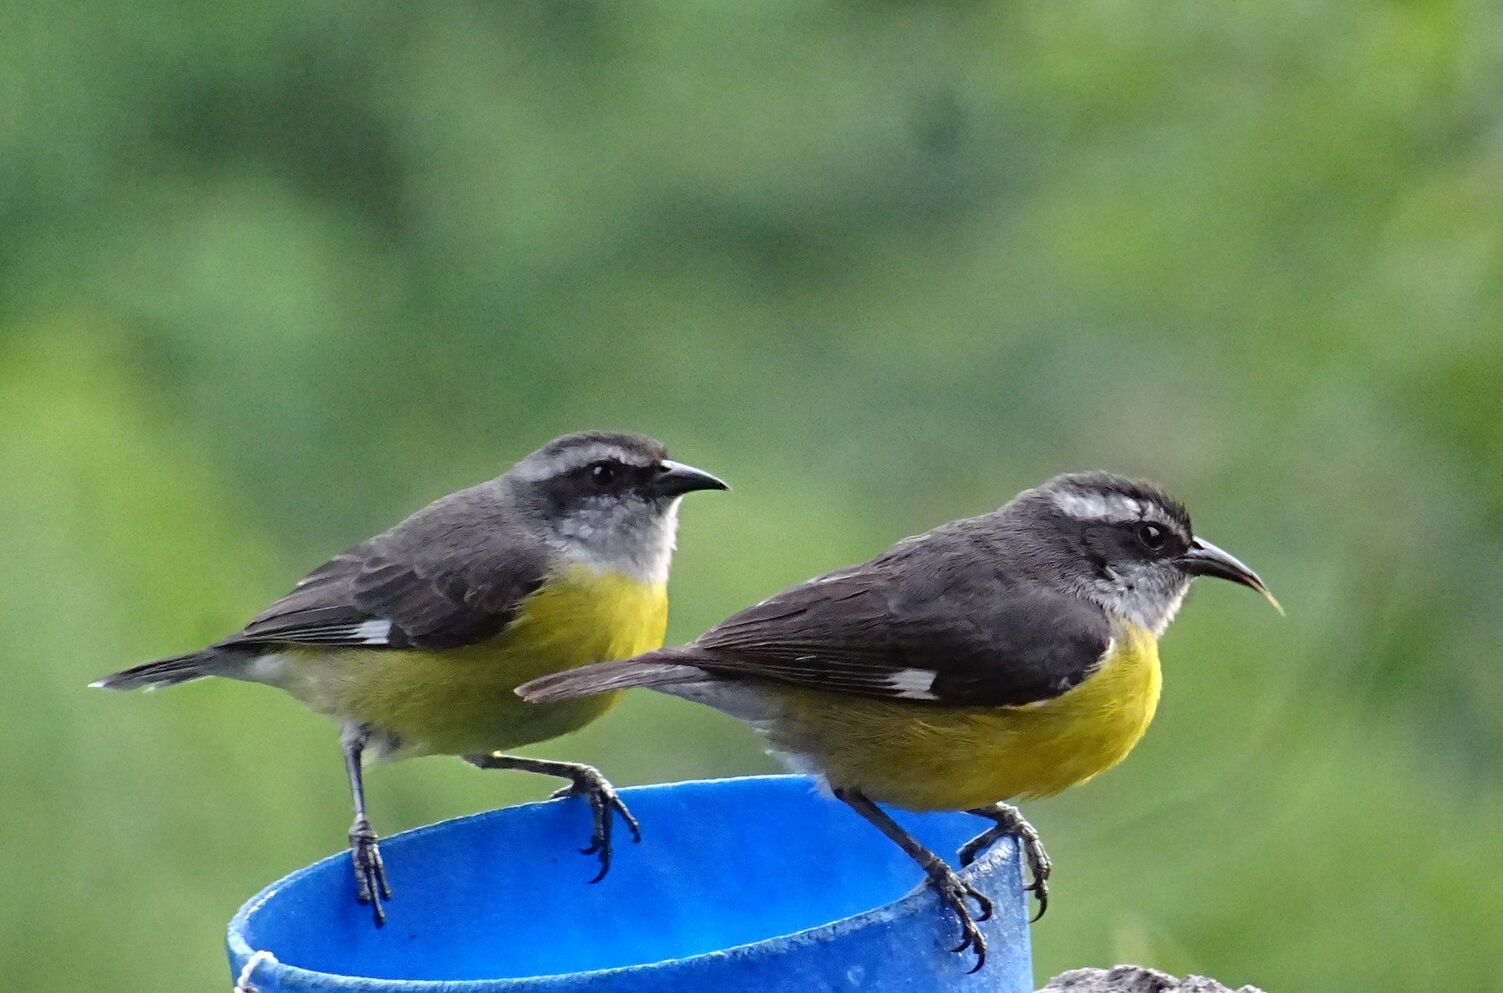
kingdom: Animalia
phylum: Chordata
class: Aves
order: Passeriformes
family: Thraupidae
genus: Coereba
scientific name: Coereba flaveola
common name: Bananaquit
